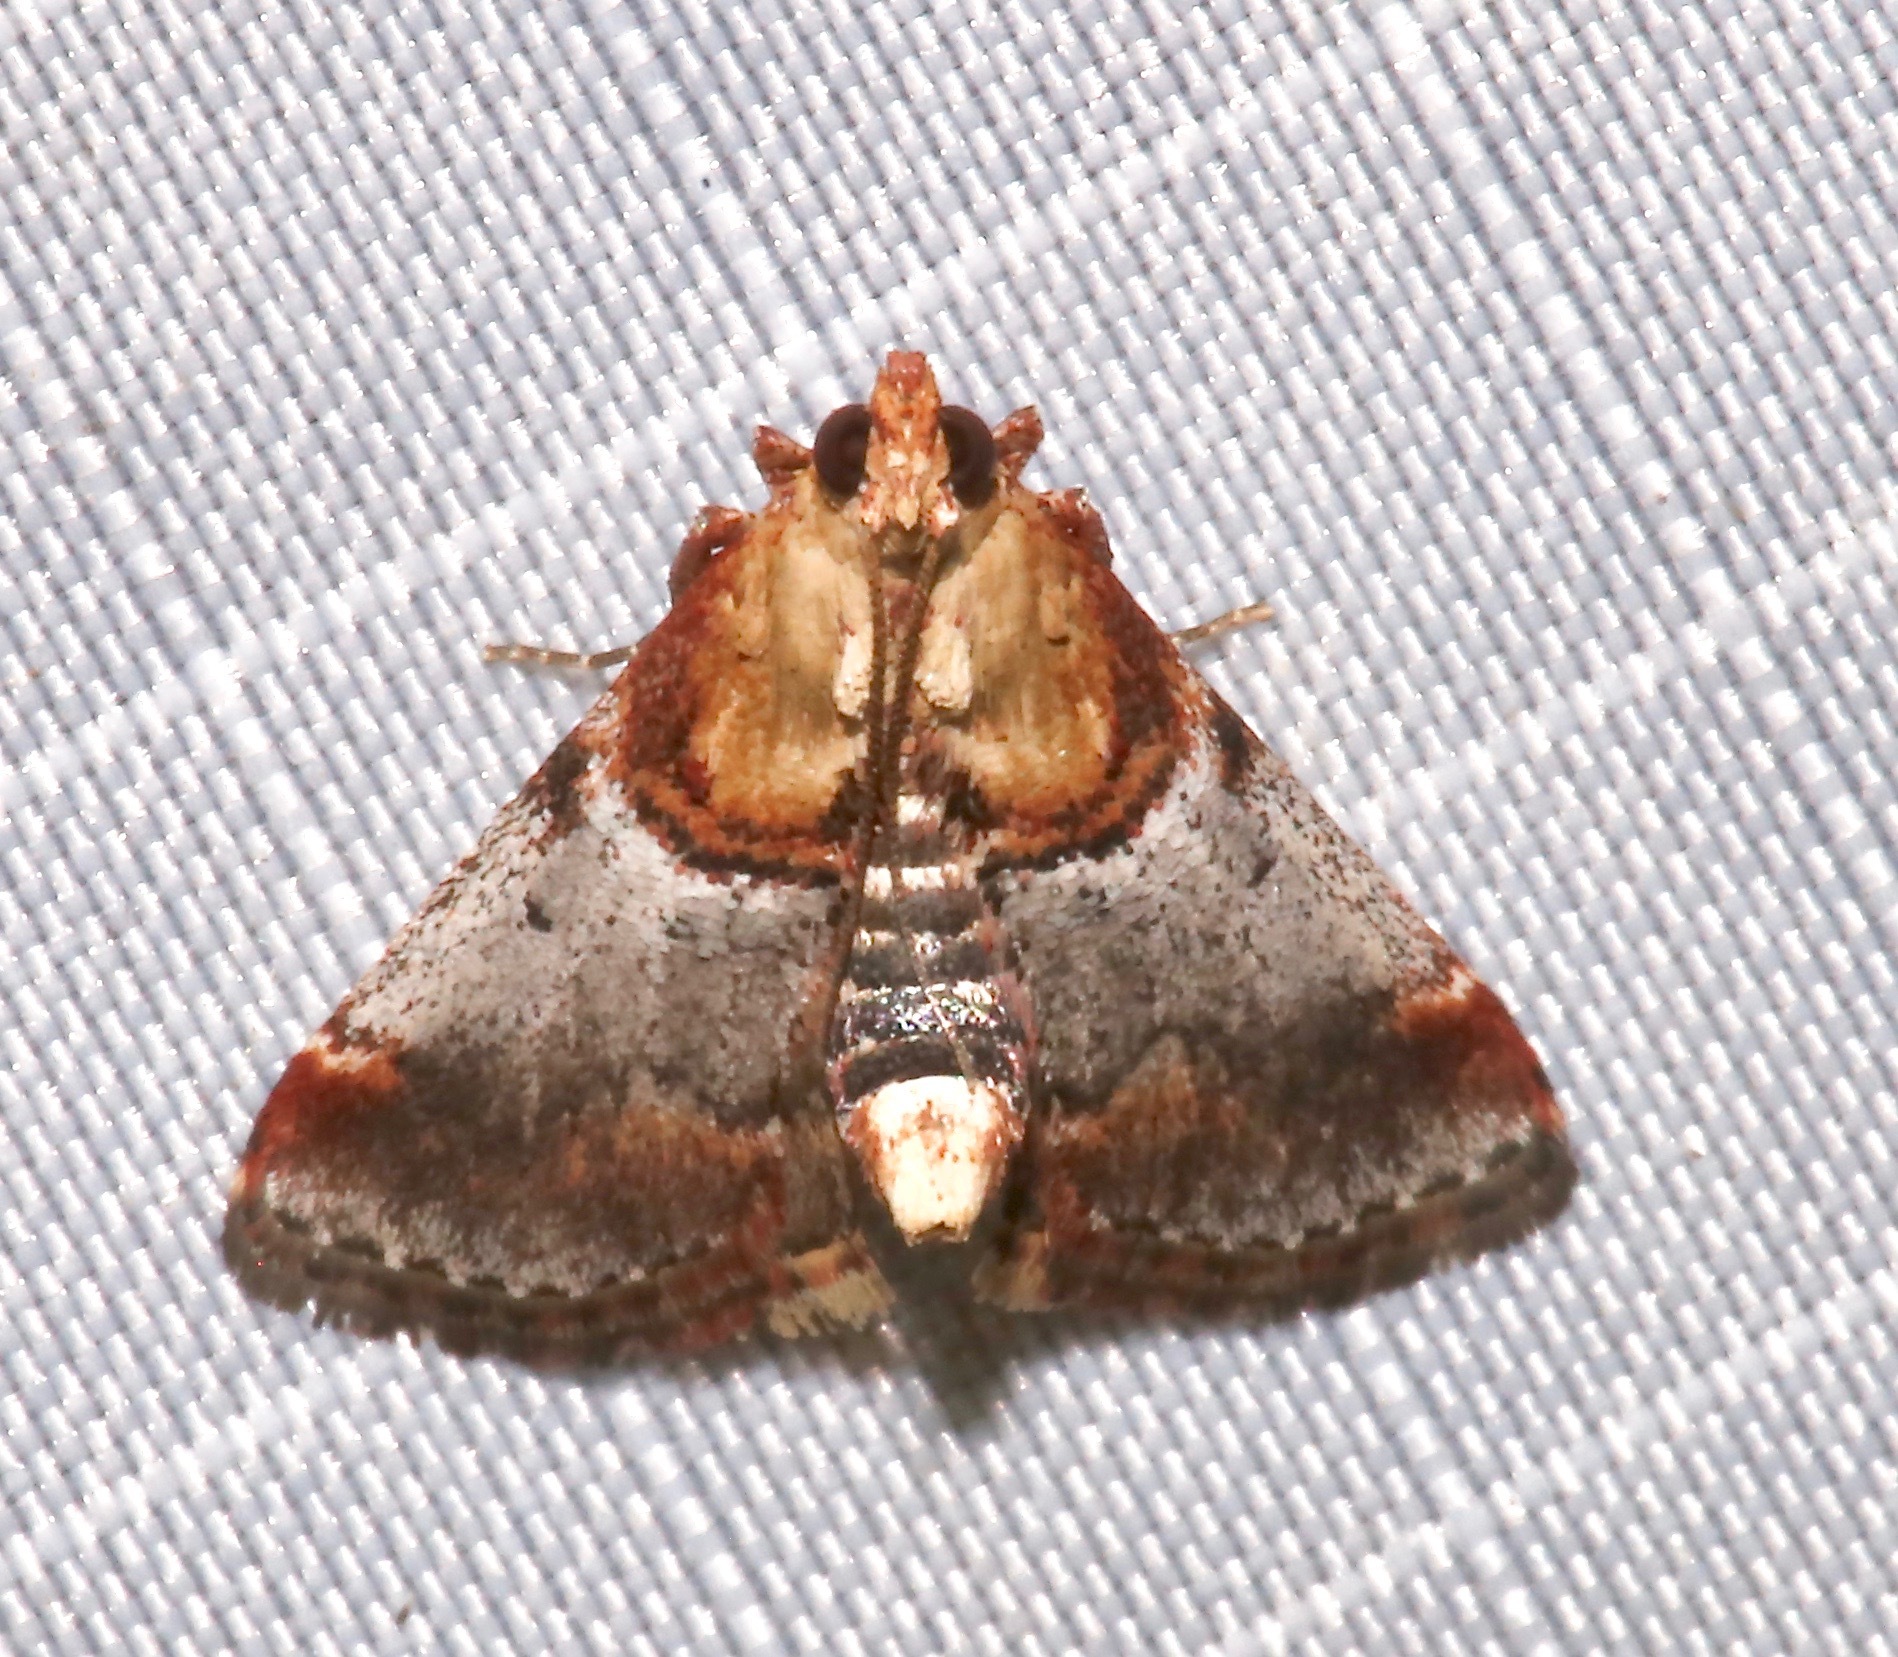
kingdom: Animalia
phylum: Arthropoda
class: Insecta
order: Lepidoptera
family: Pyralidae
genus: Cacozelia
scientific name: Cacozelia basiochrealis
